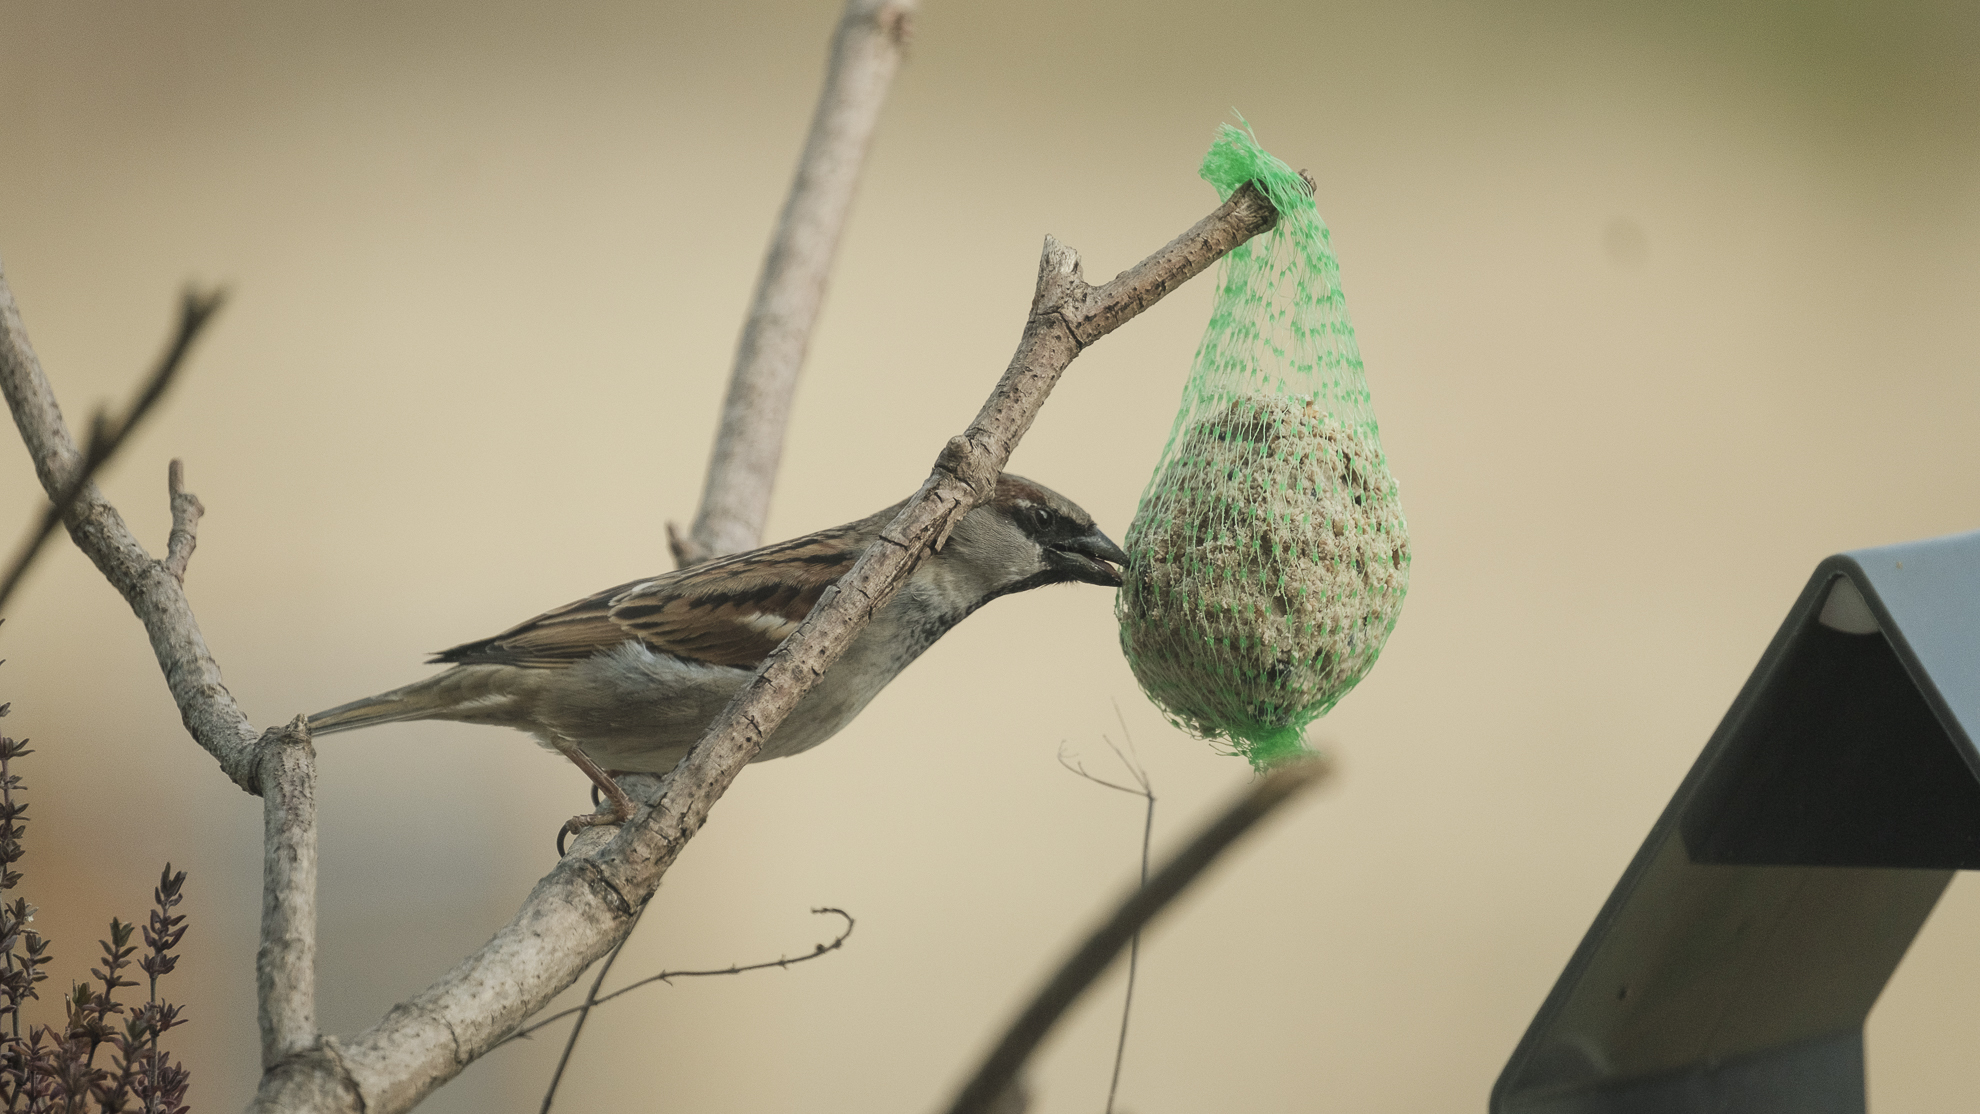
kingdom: Animalia
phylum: Chordata
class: Aves
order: Passeriformes
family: Passeridae
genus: Passer
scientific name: Passer domesticus
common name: House sparrow
